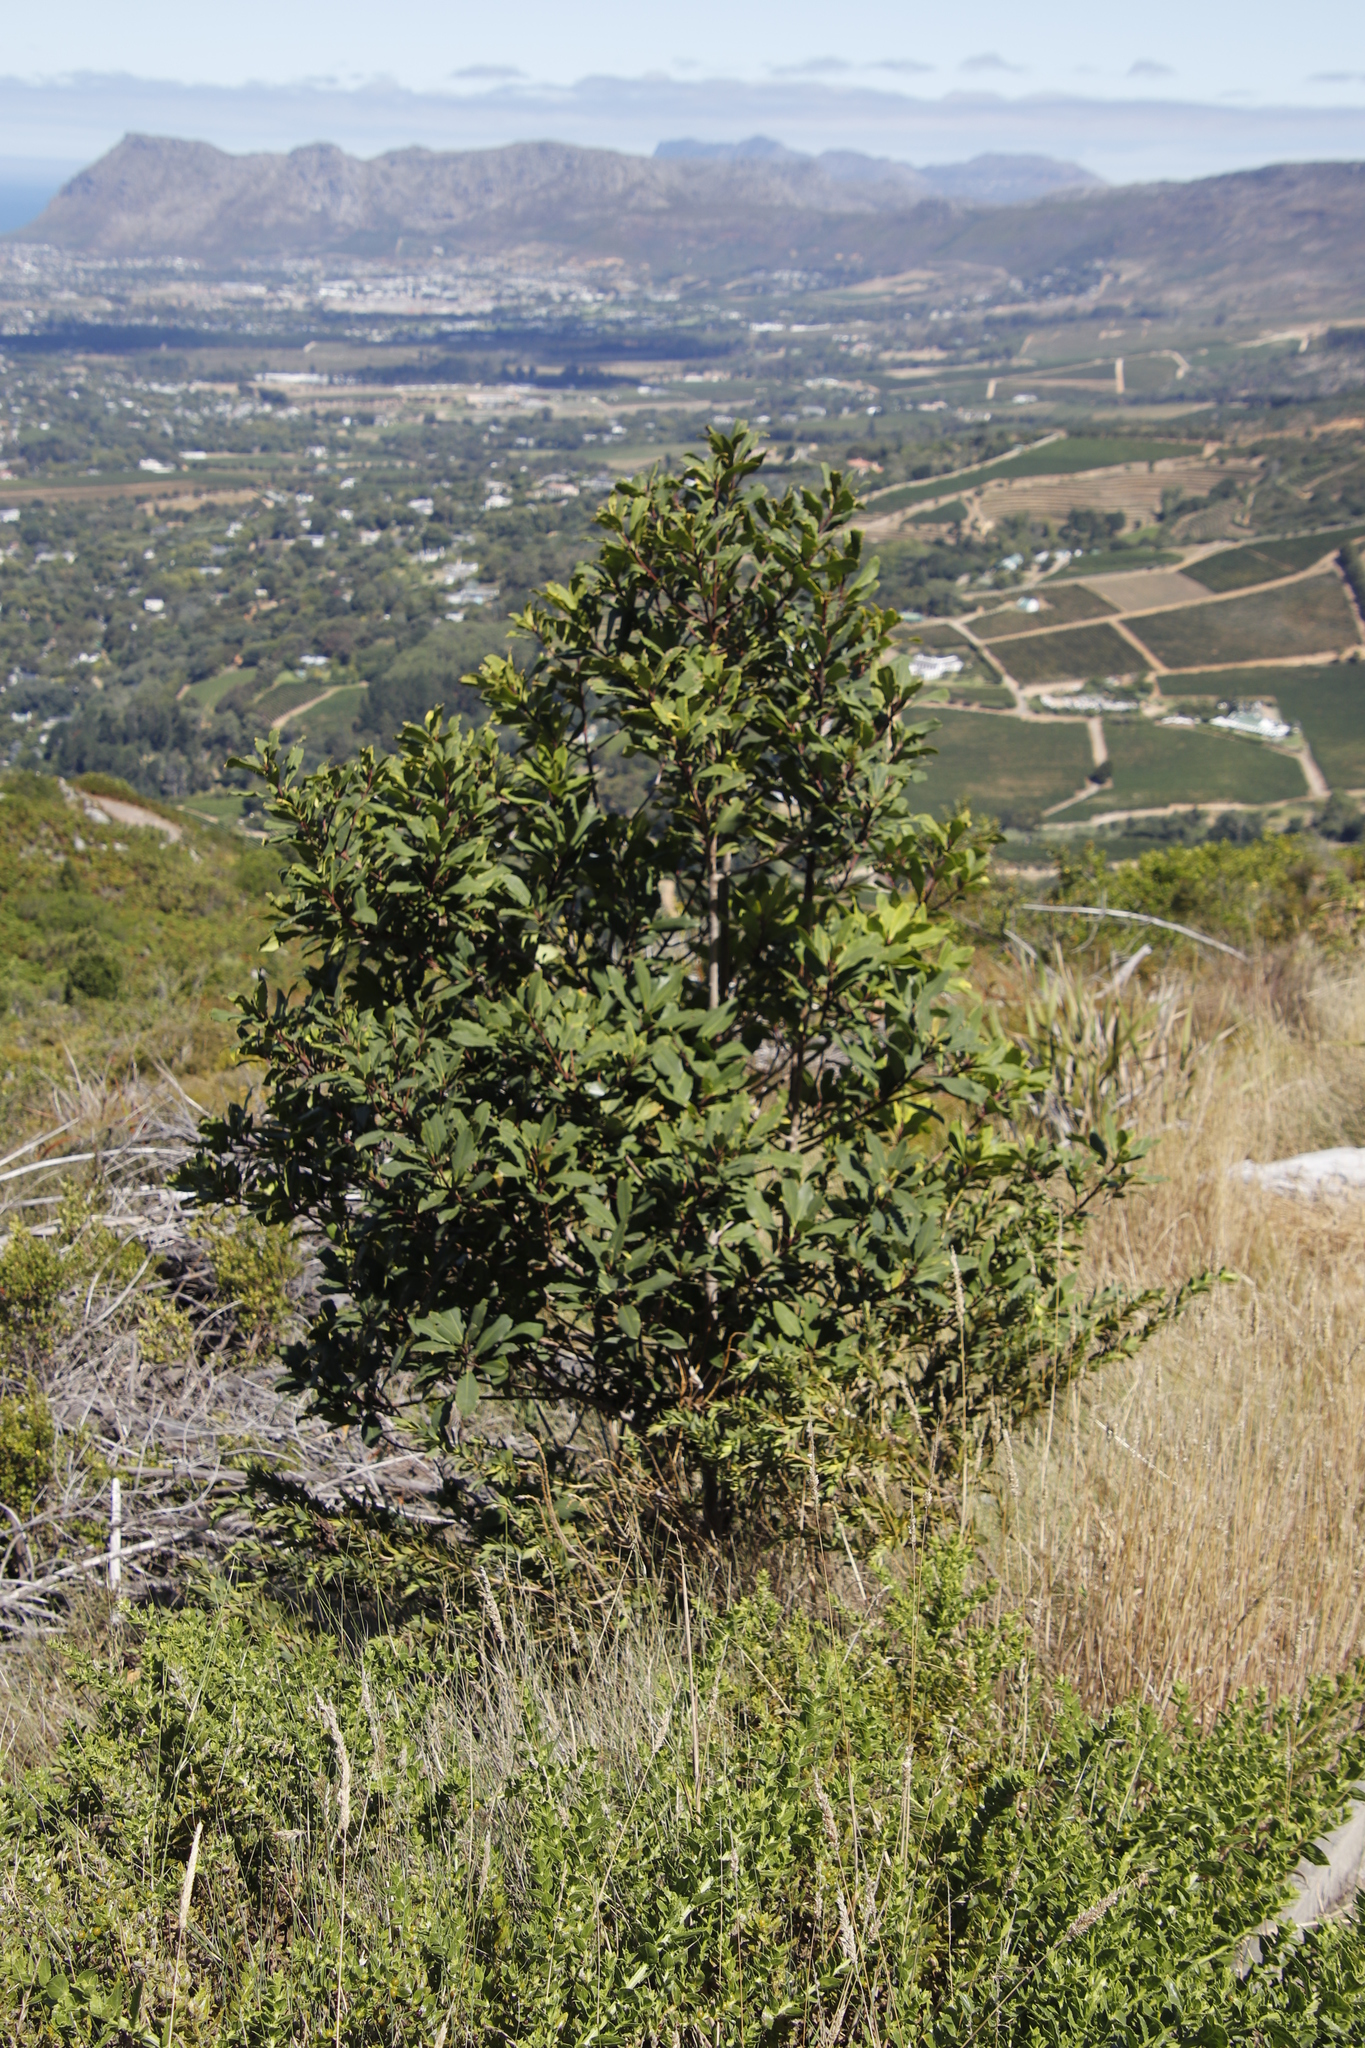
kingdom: Plantae
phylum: Tracheophyta
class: Magnoliopsida
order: Ericales
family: Primulaceae
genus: Myrsine
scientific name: Myrsine melanophloeos
